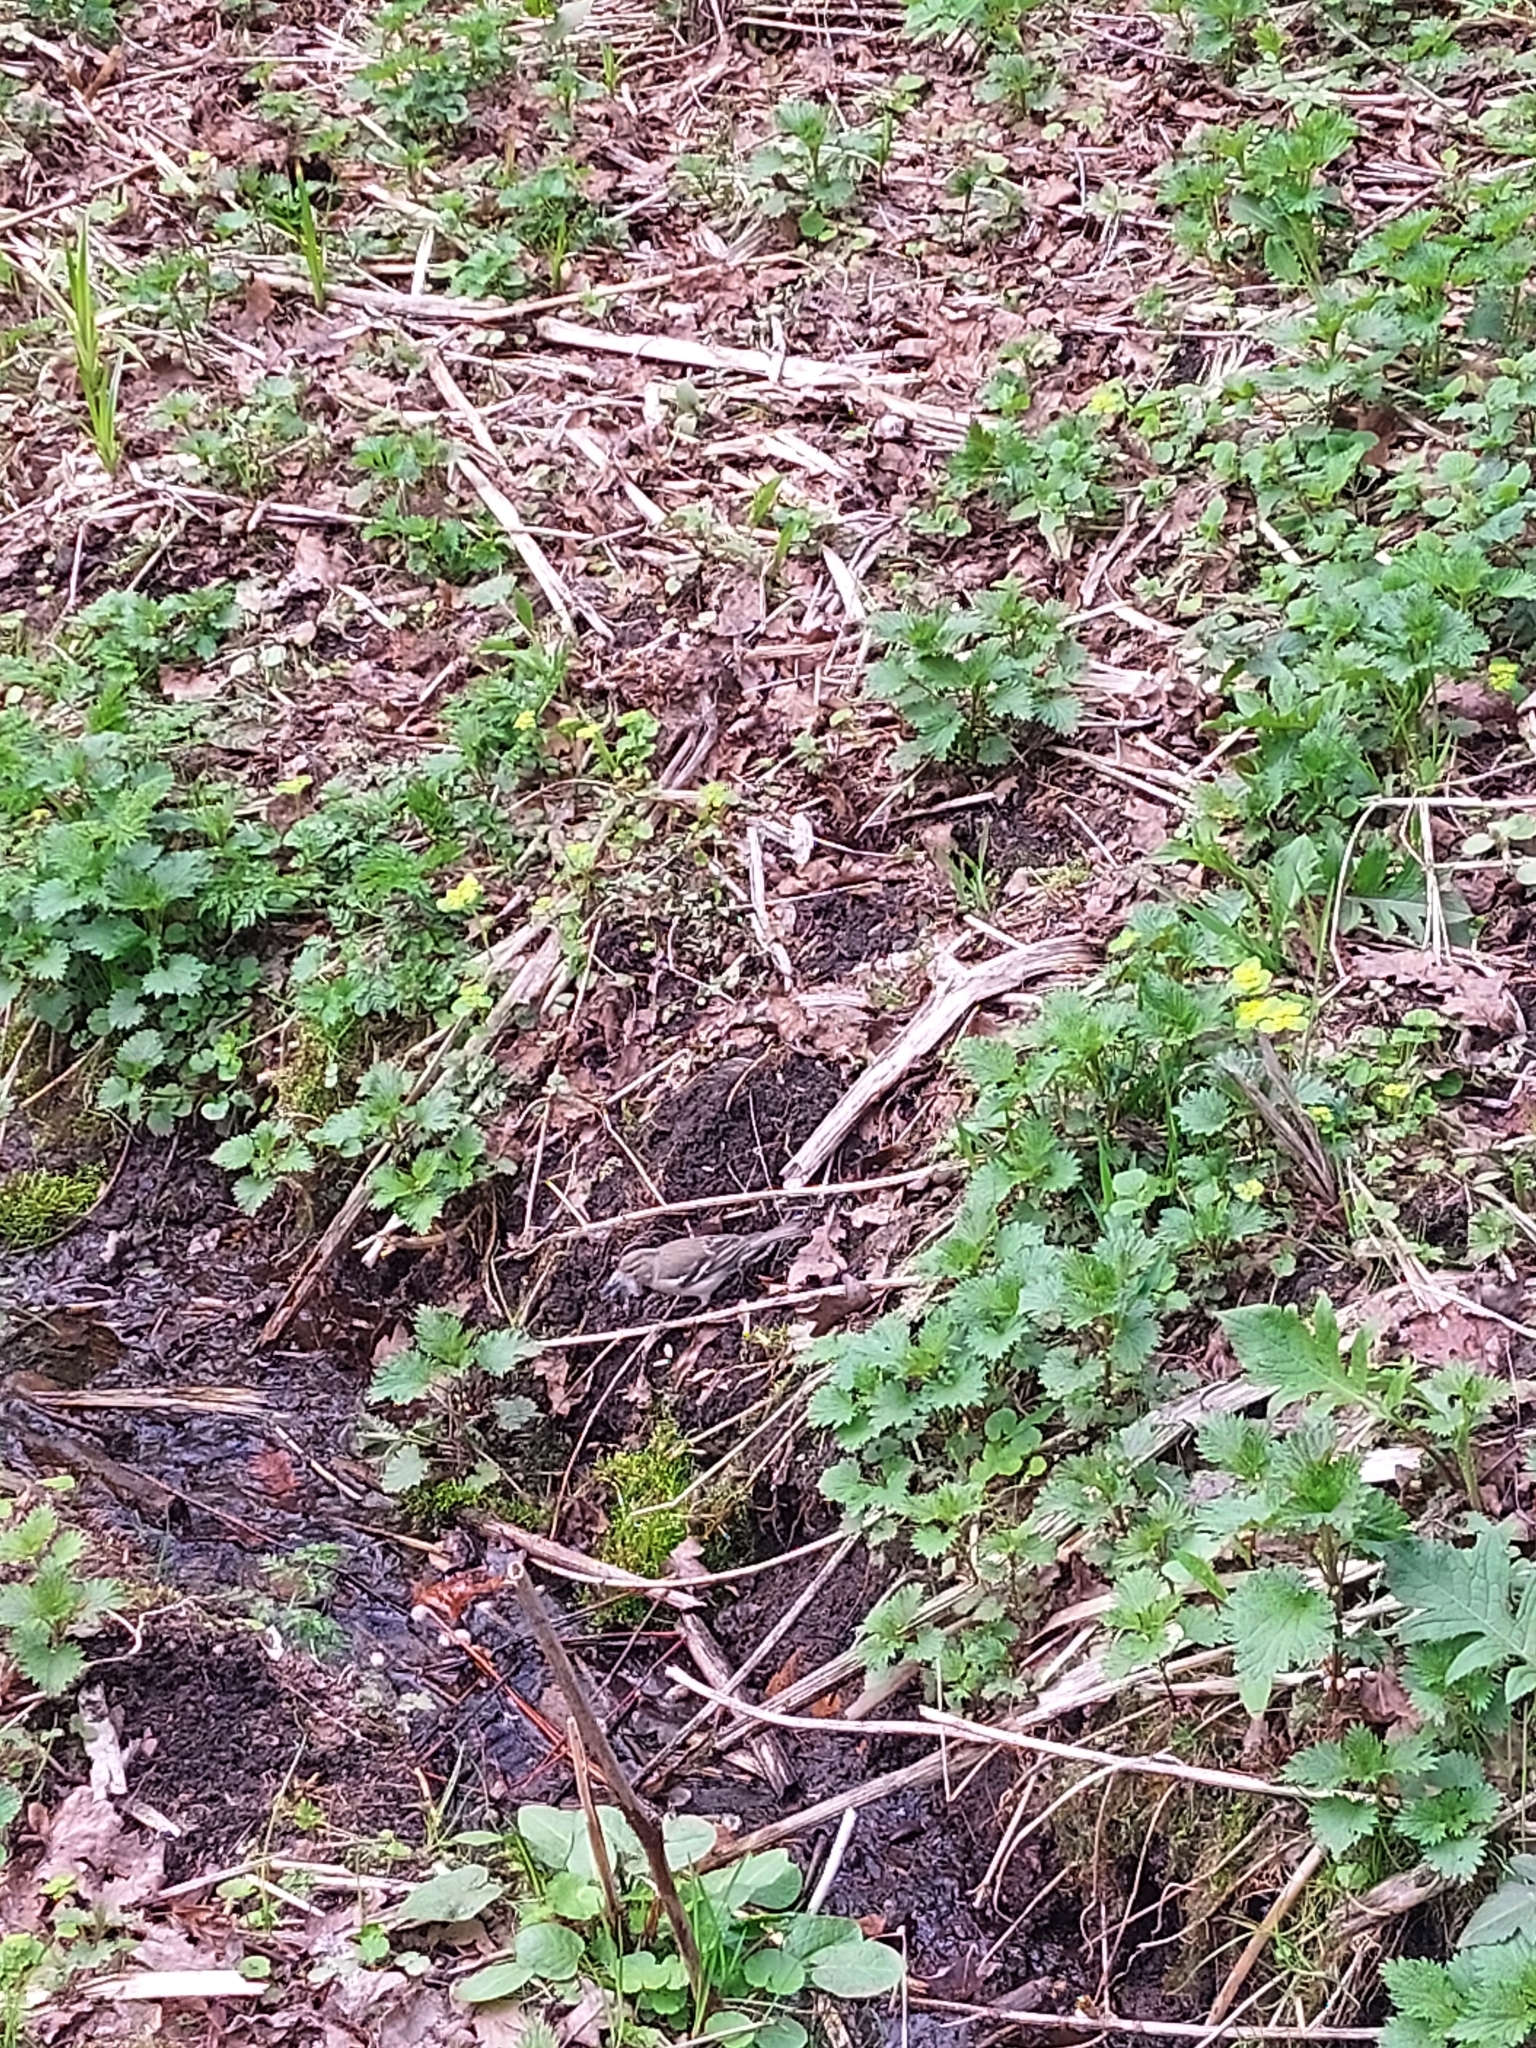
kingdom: Animalia
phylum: Chordata
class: Aves
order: Passeriformes
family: Fringillidae
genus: Fringilla
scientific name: Fringilla coelebs
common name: Common chaffinch
